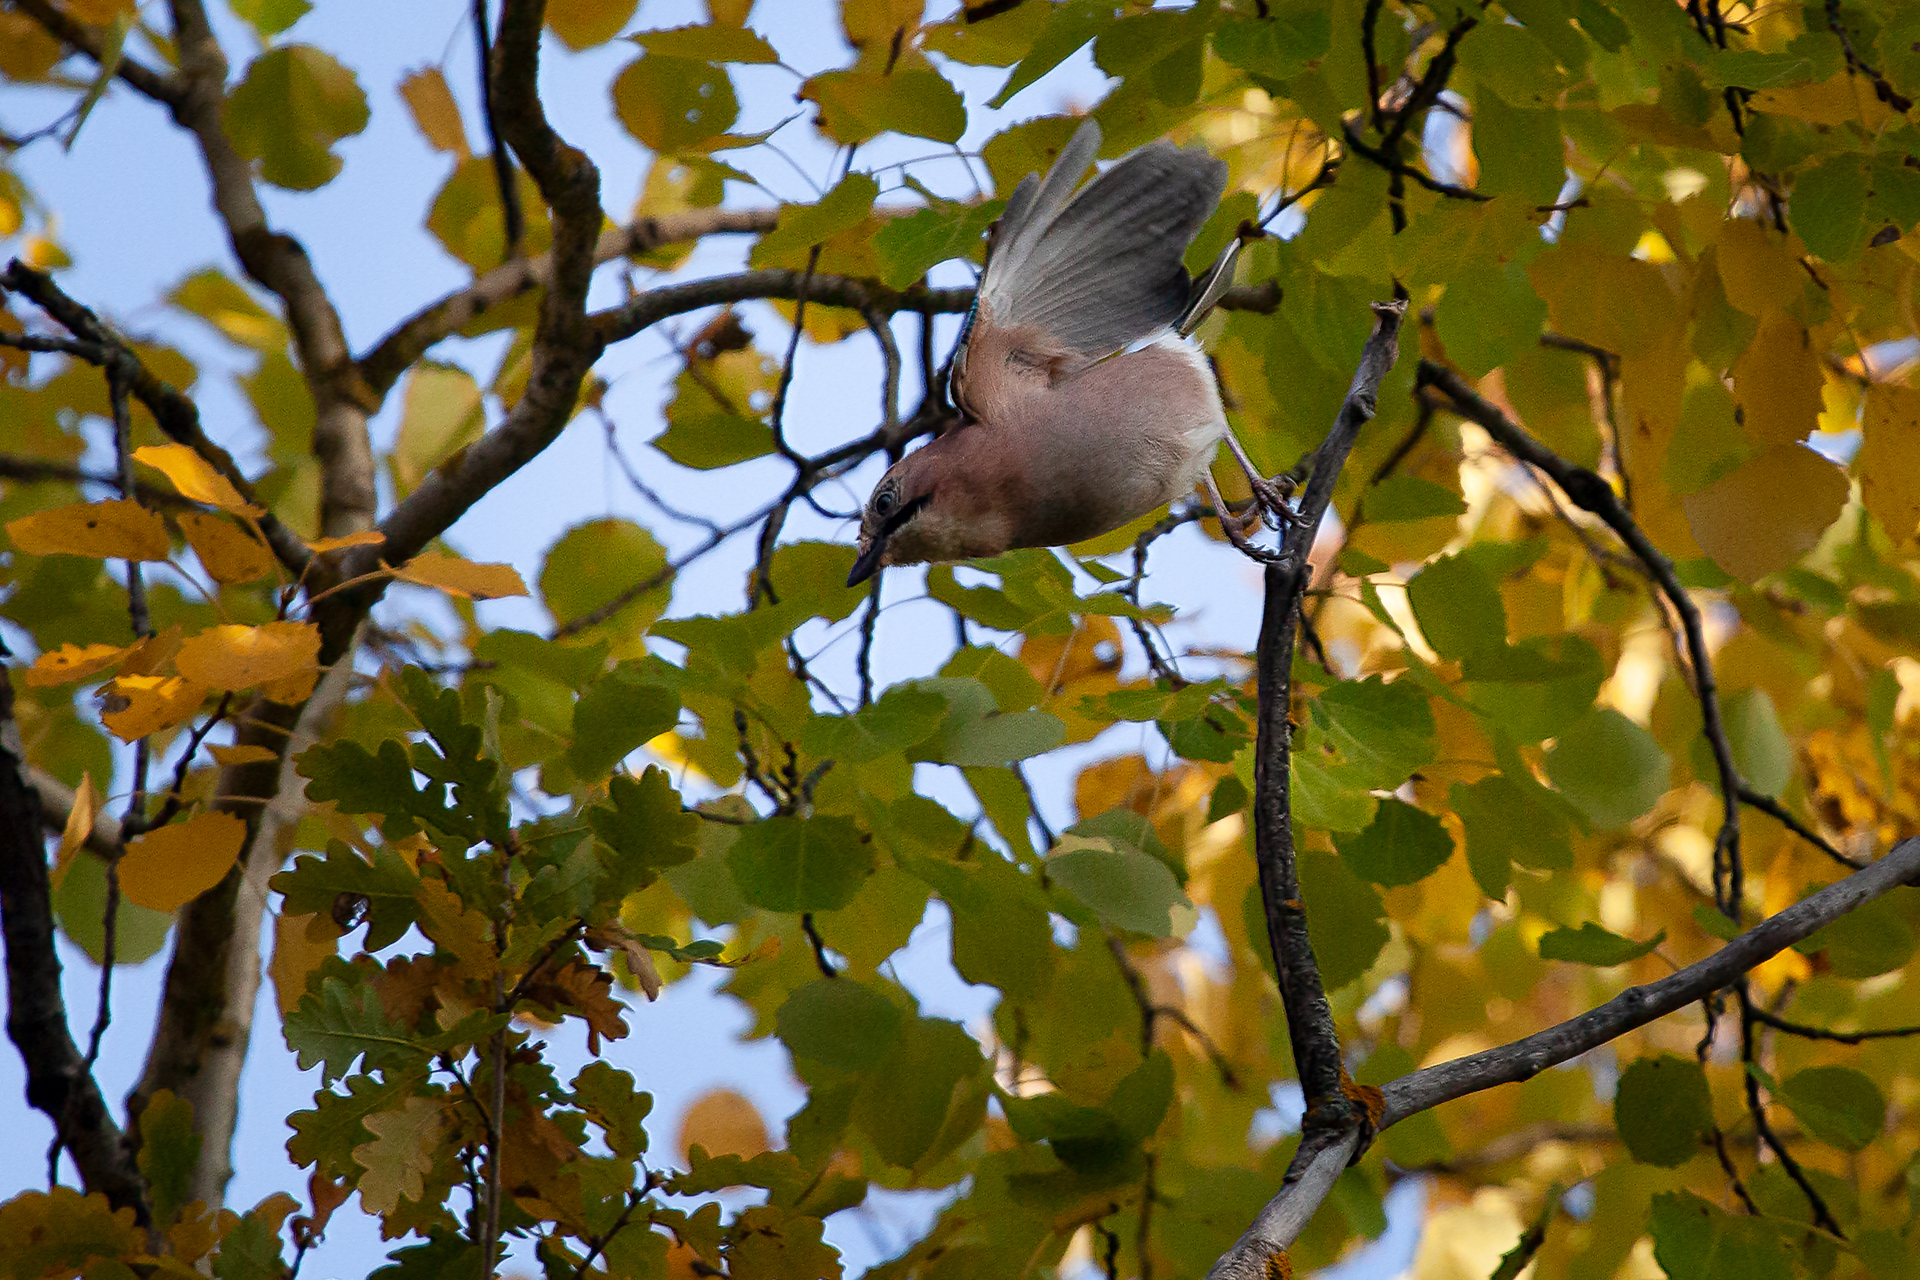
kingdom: Animalia
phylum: Chordata
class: Aves
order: Passeriformes
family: Corvidae
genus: Garrulus
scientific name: Garrulus glandarius
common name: Eurasian jay
